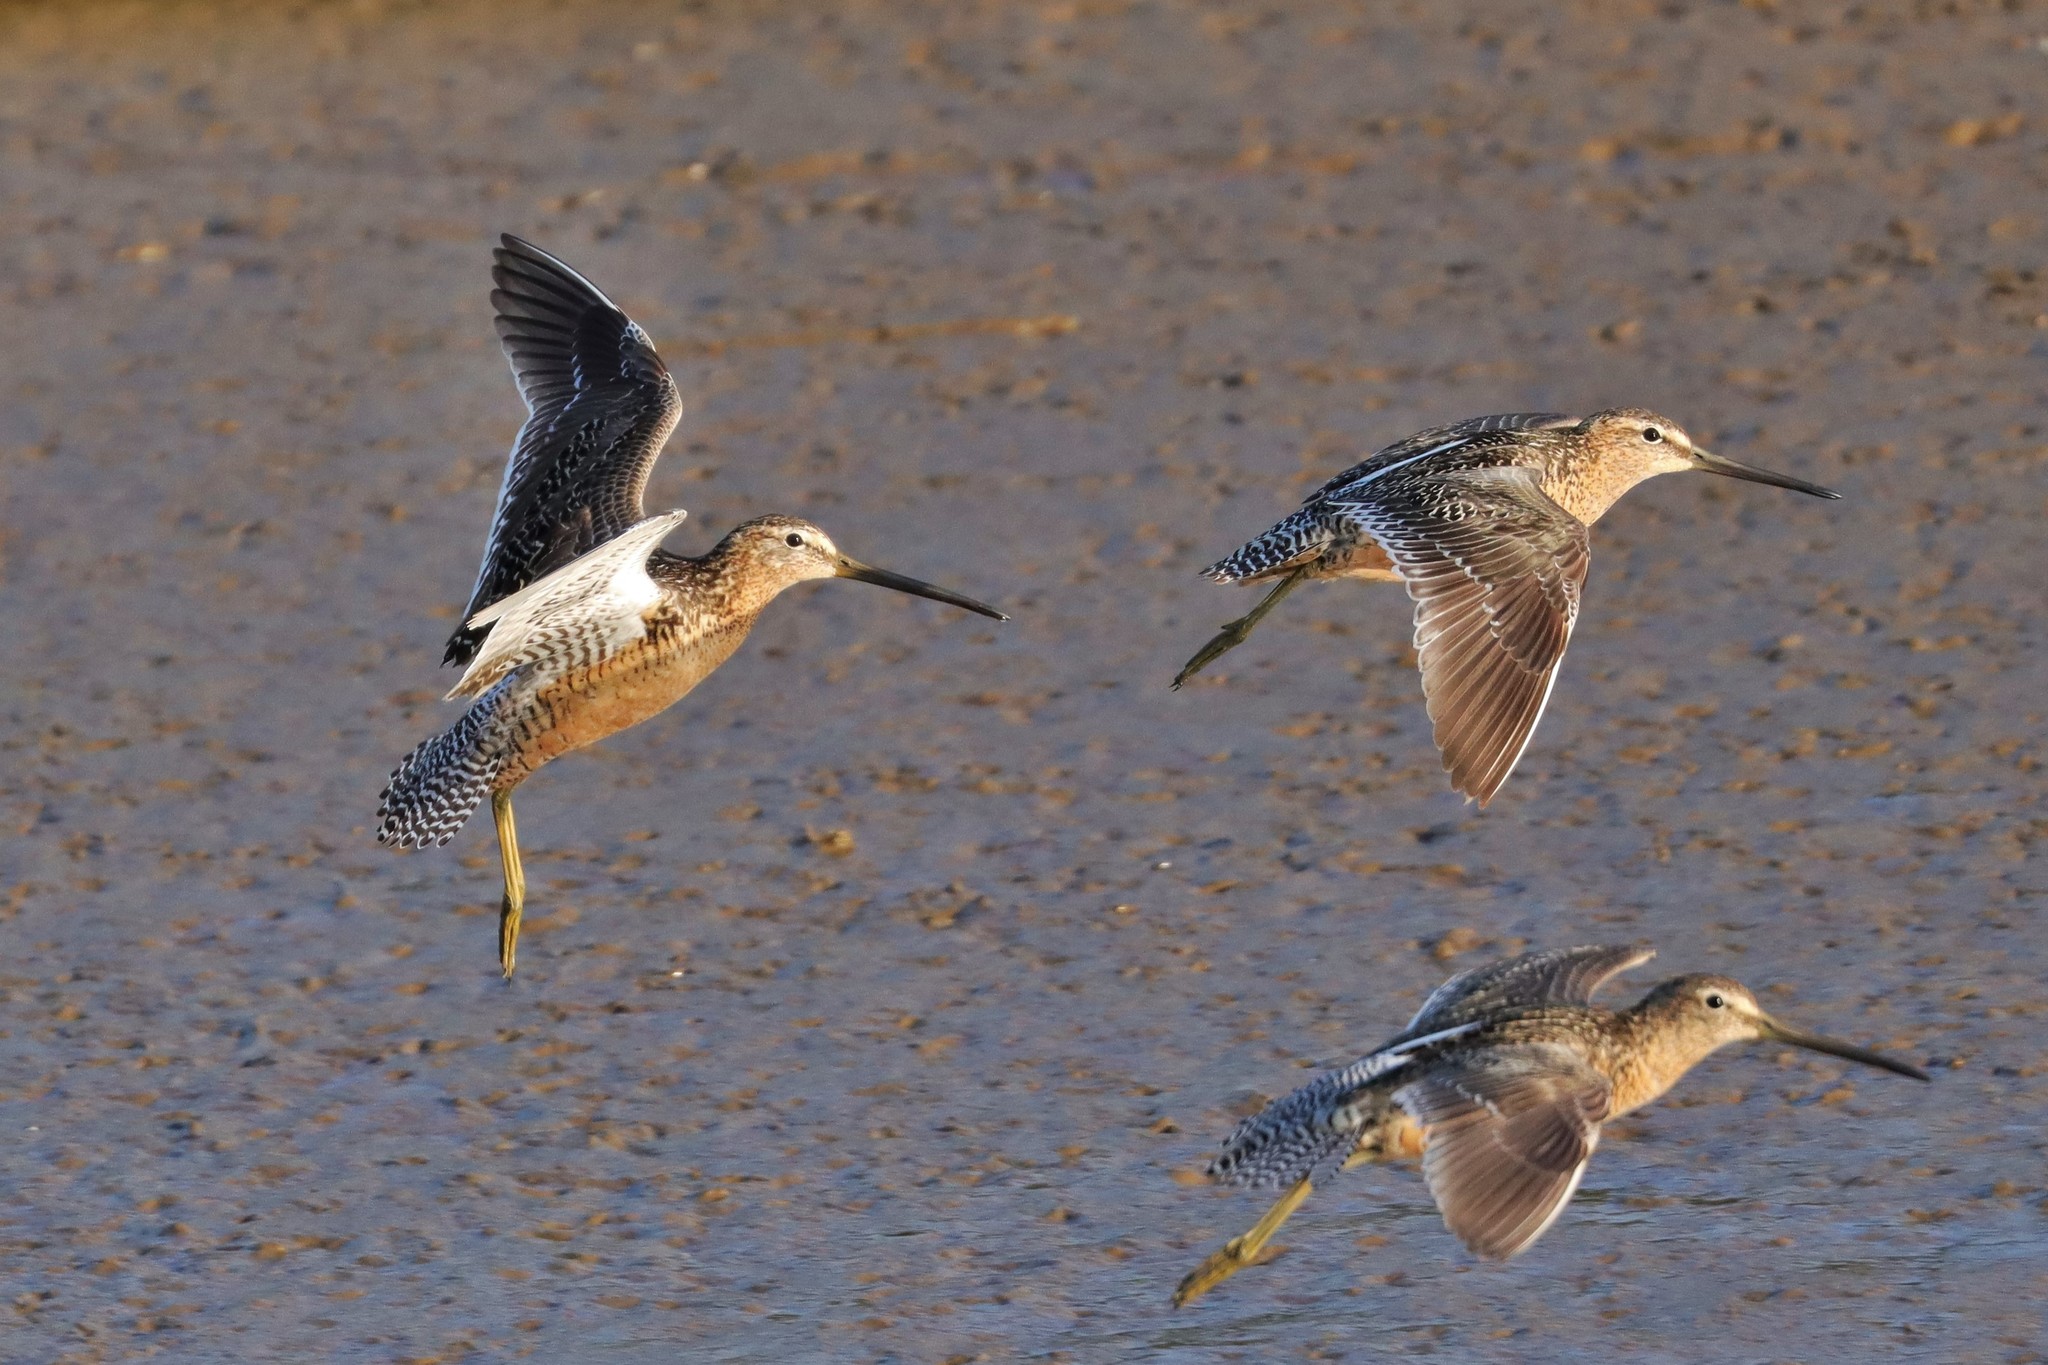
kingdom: Animalia
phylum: Chordata
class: Aves
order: Charadriiformes
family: Scolopacidae
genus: Limnodromus
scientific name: Limnodromus scolopaceus
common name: Long-billed dowitcher
